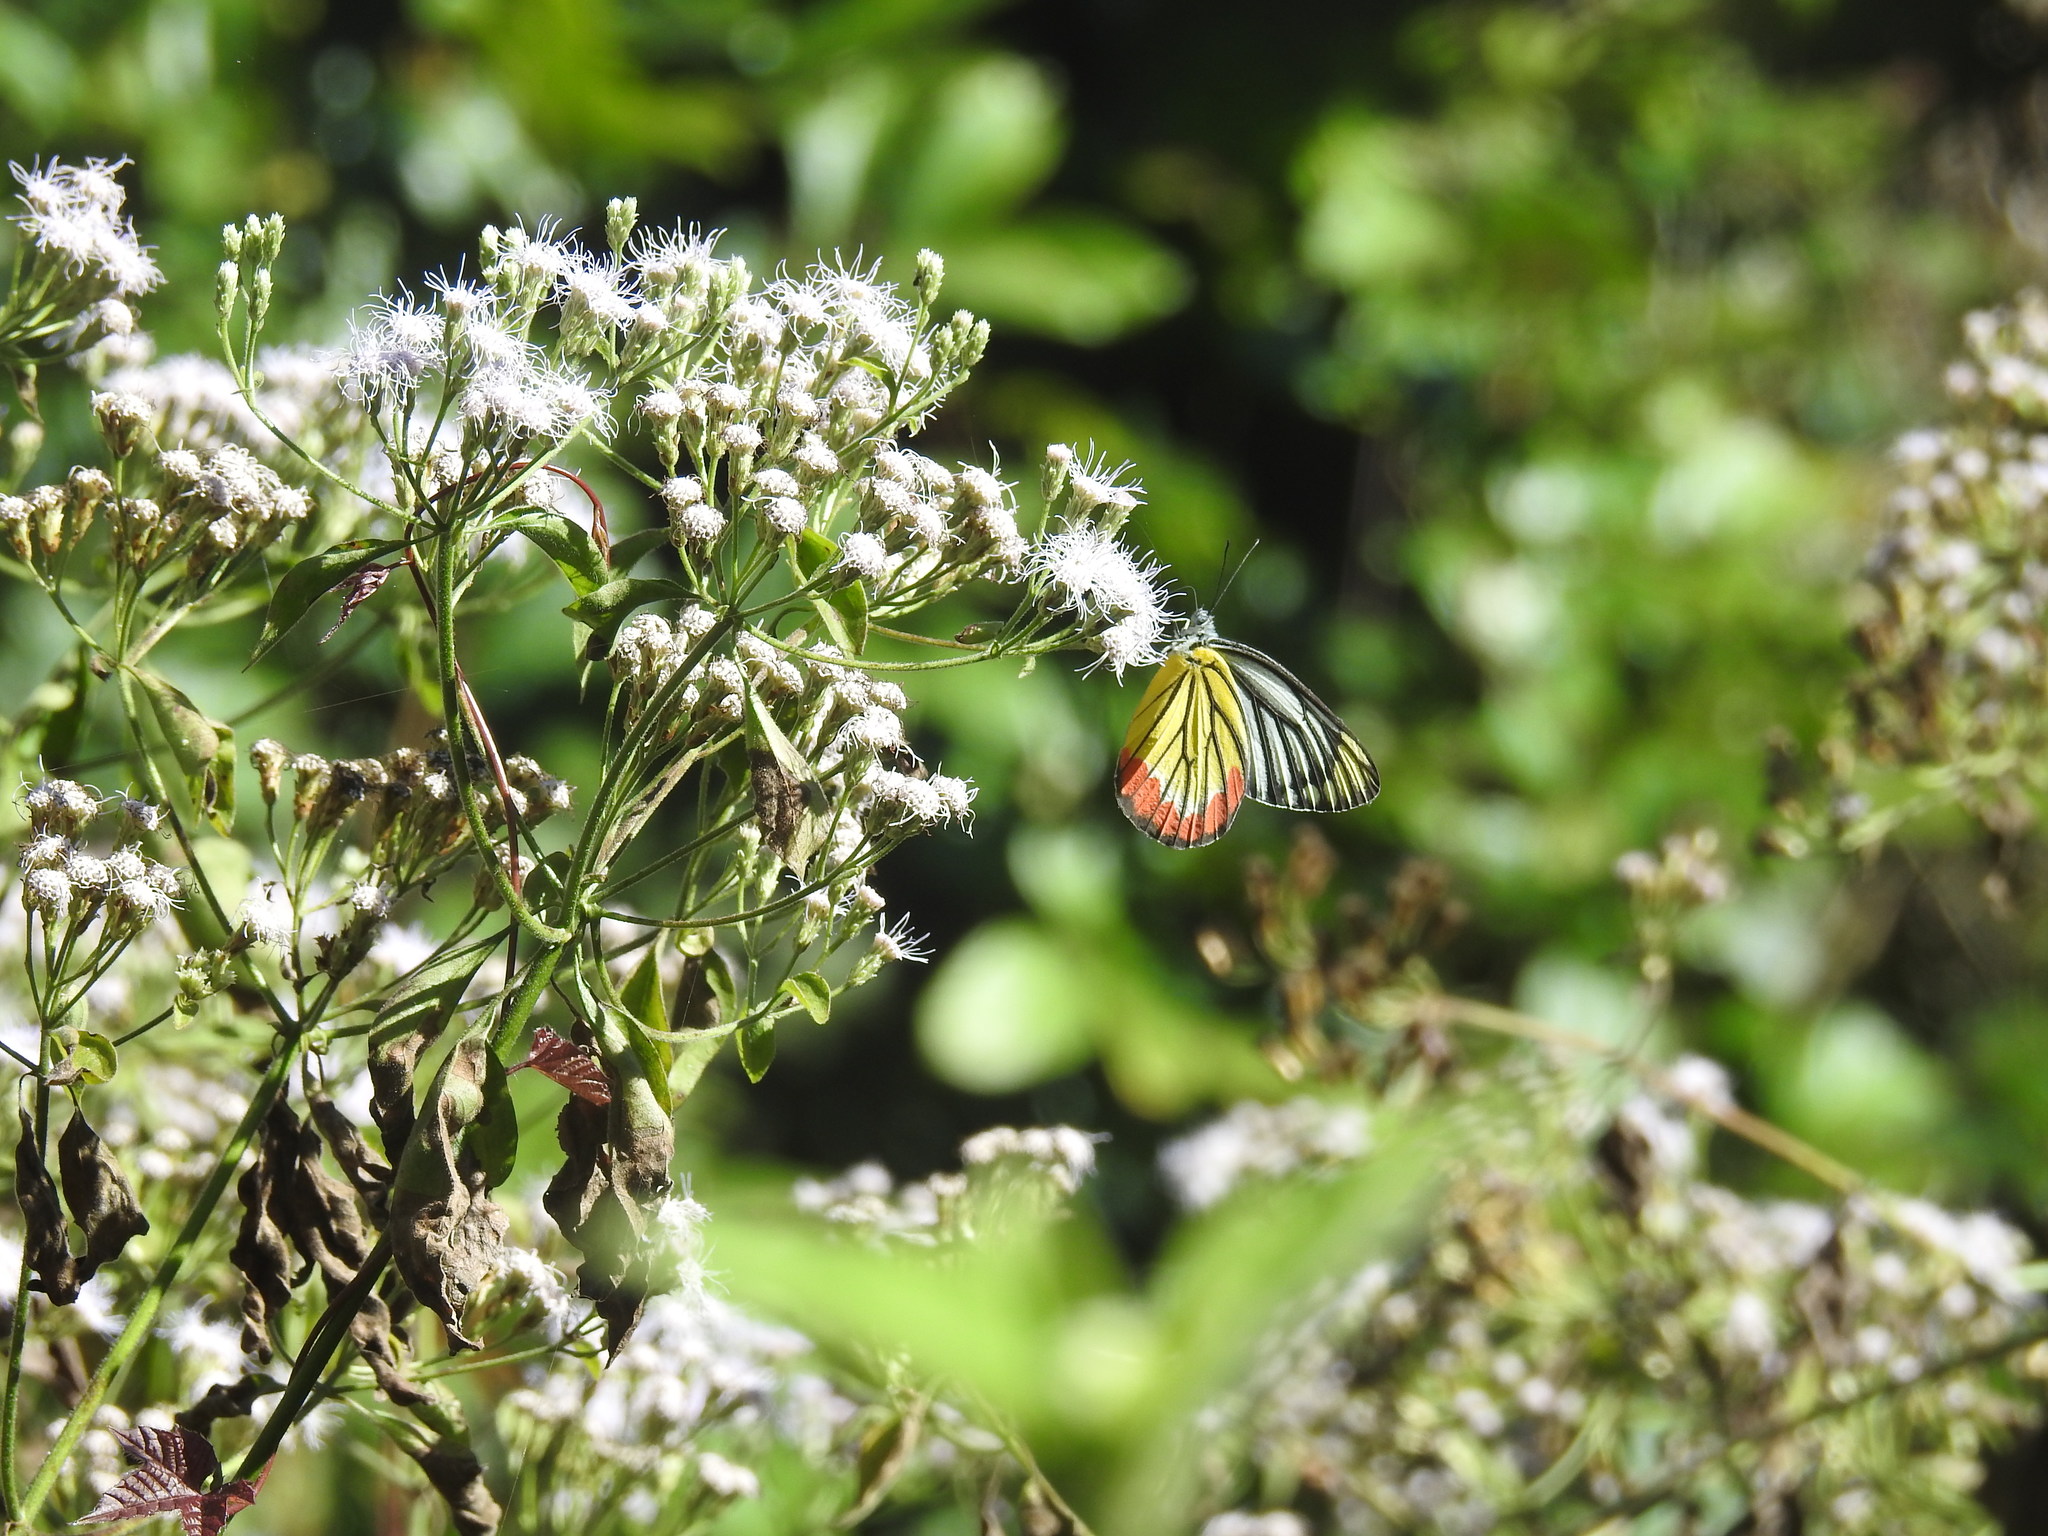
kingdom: Animalia
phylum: Arthropoda
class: Insecta
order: Lepidoptera
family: Pieridae
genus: Delias
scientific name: Delias eucharis
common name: Common jezebel
